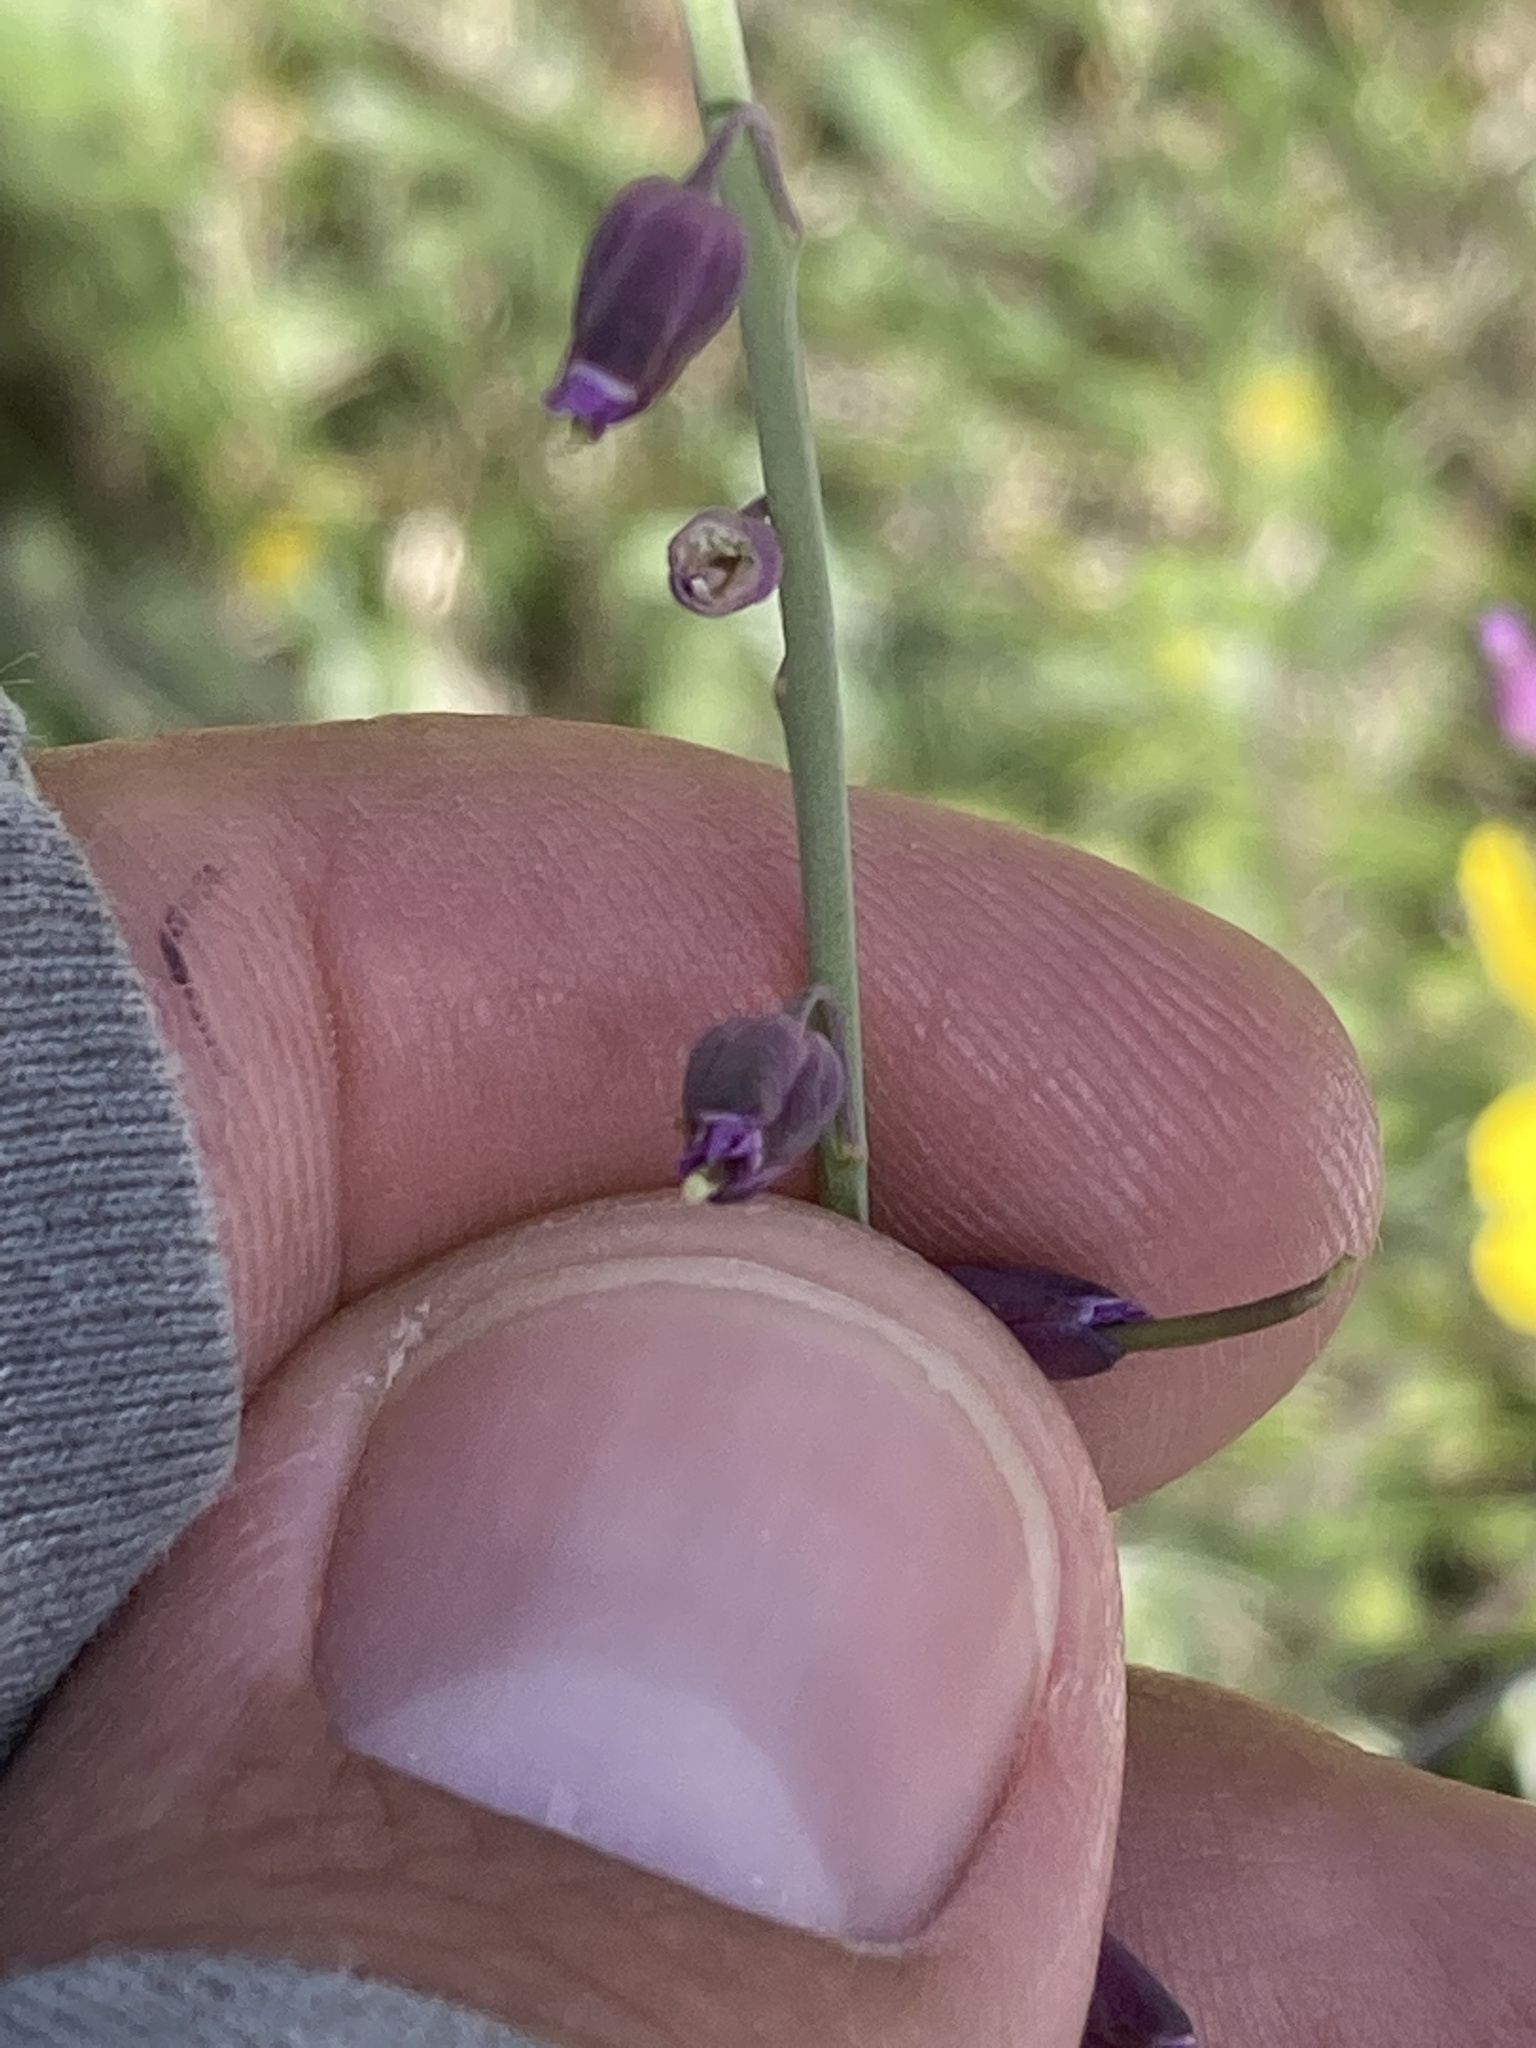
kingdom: Plantae
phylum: Tracheophyta
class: Magnoliopsida
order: Brassicales
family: Brassicaceae
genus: Pennellia
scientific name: Pennellia longifolia
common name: Longleaf mock thelypody
